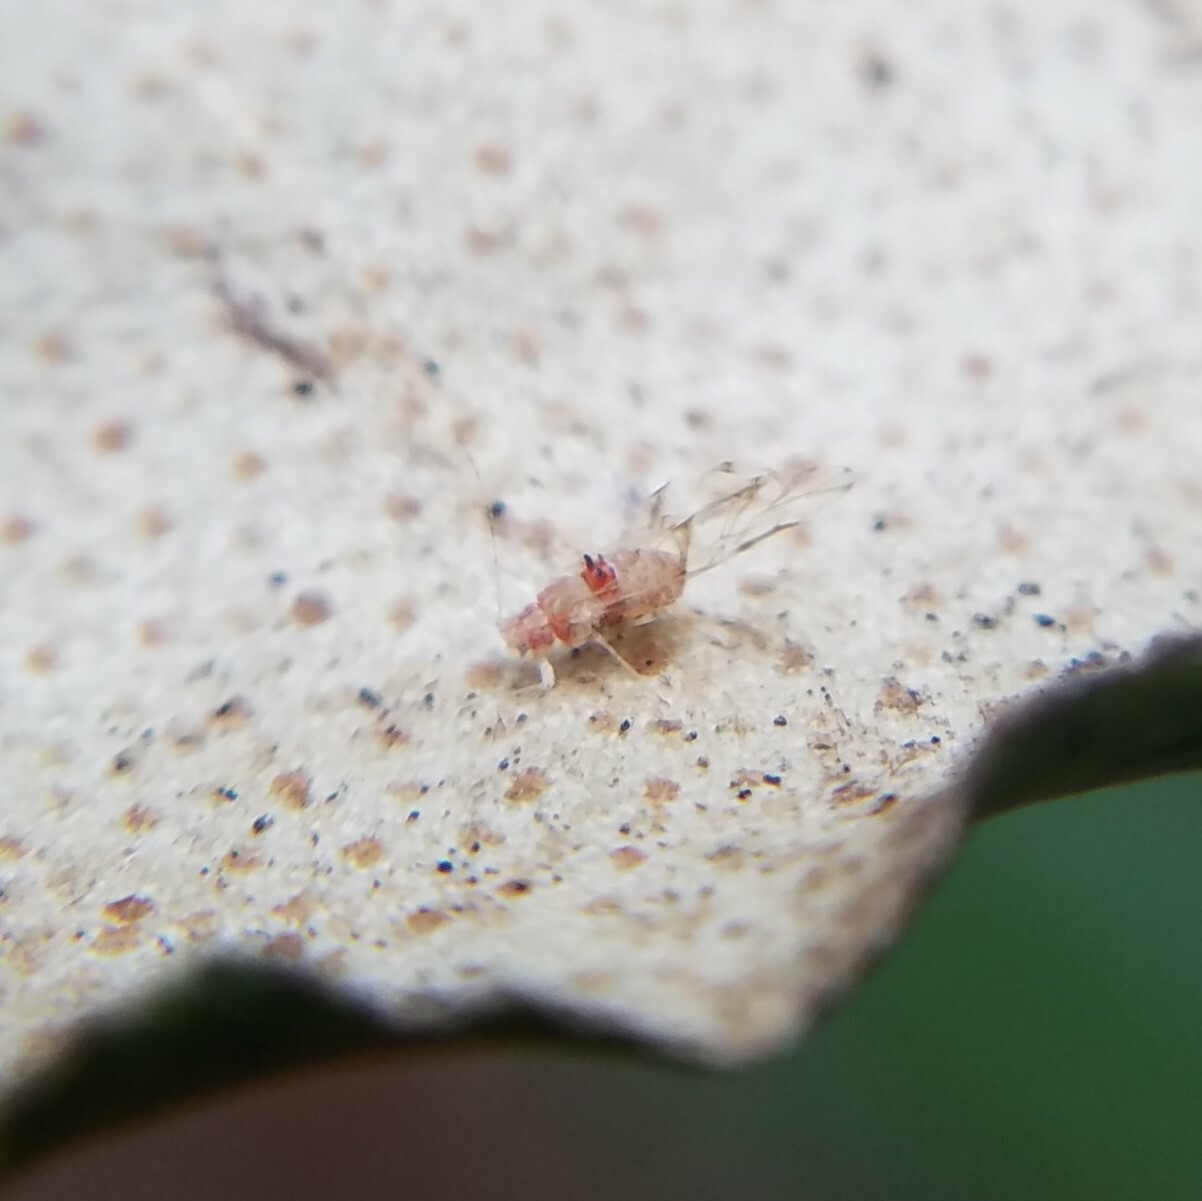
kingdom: Animalia
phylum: Arthropoda
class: Insecta
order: Hemiptera
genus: Neomyzocallis
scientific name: Neomyzocallis
